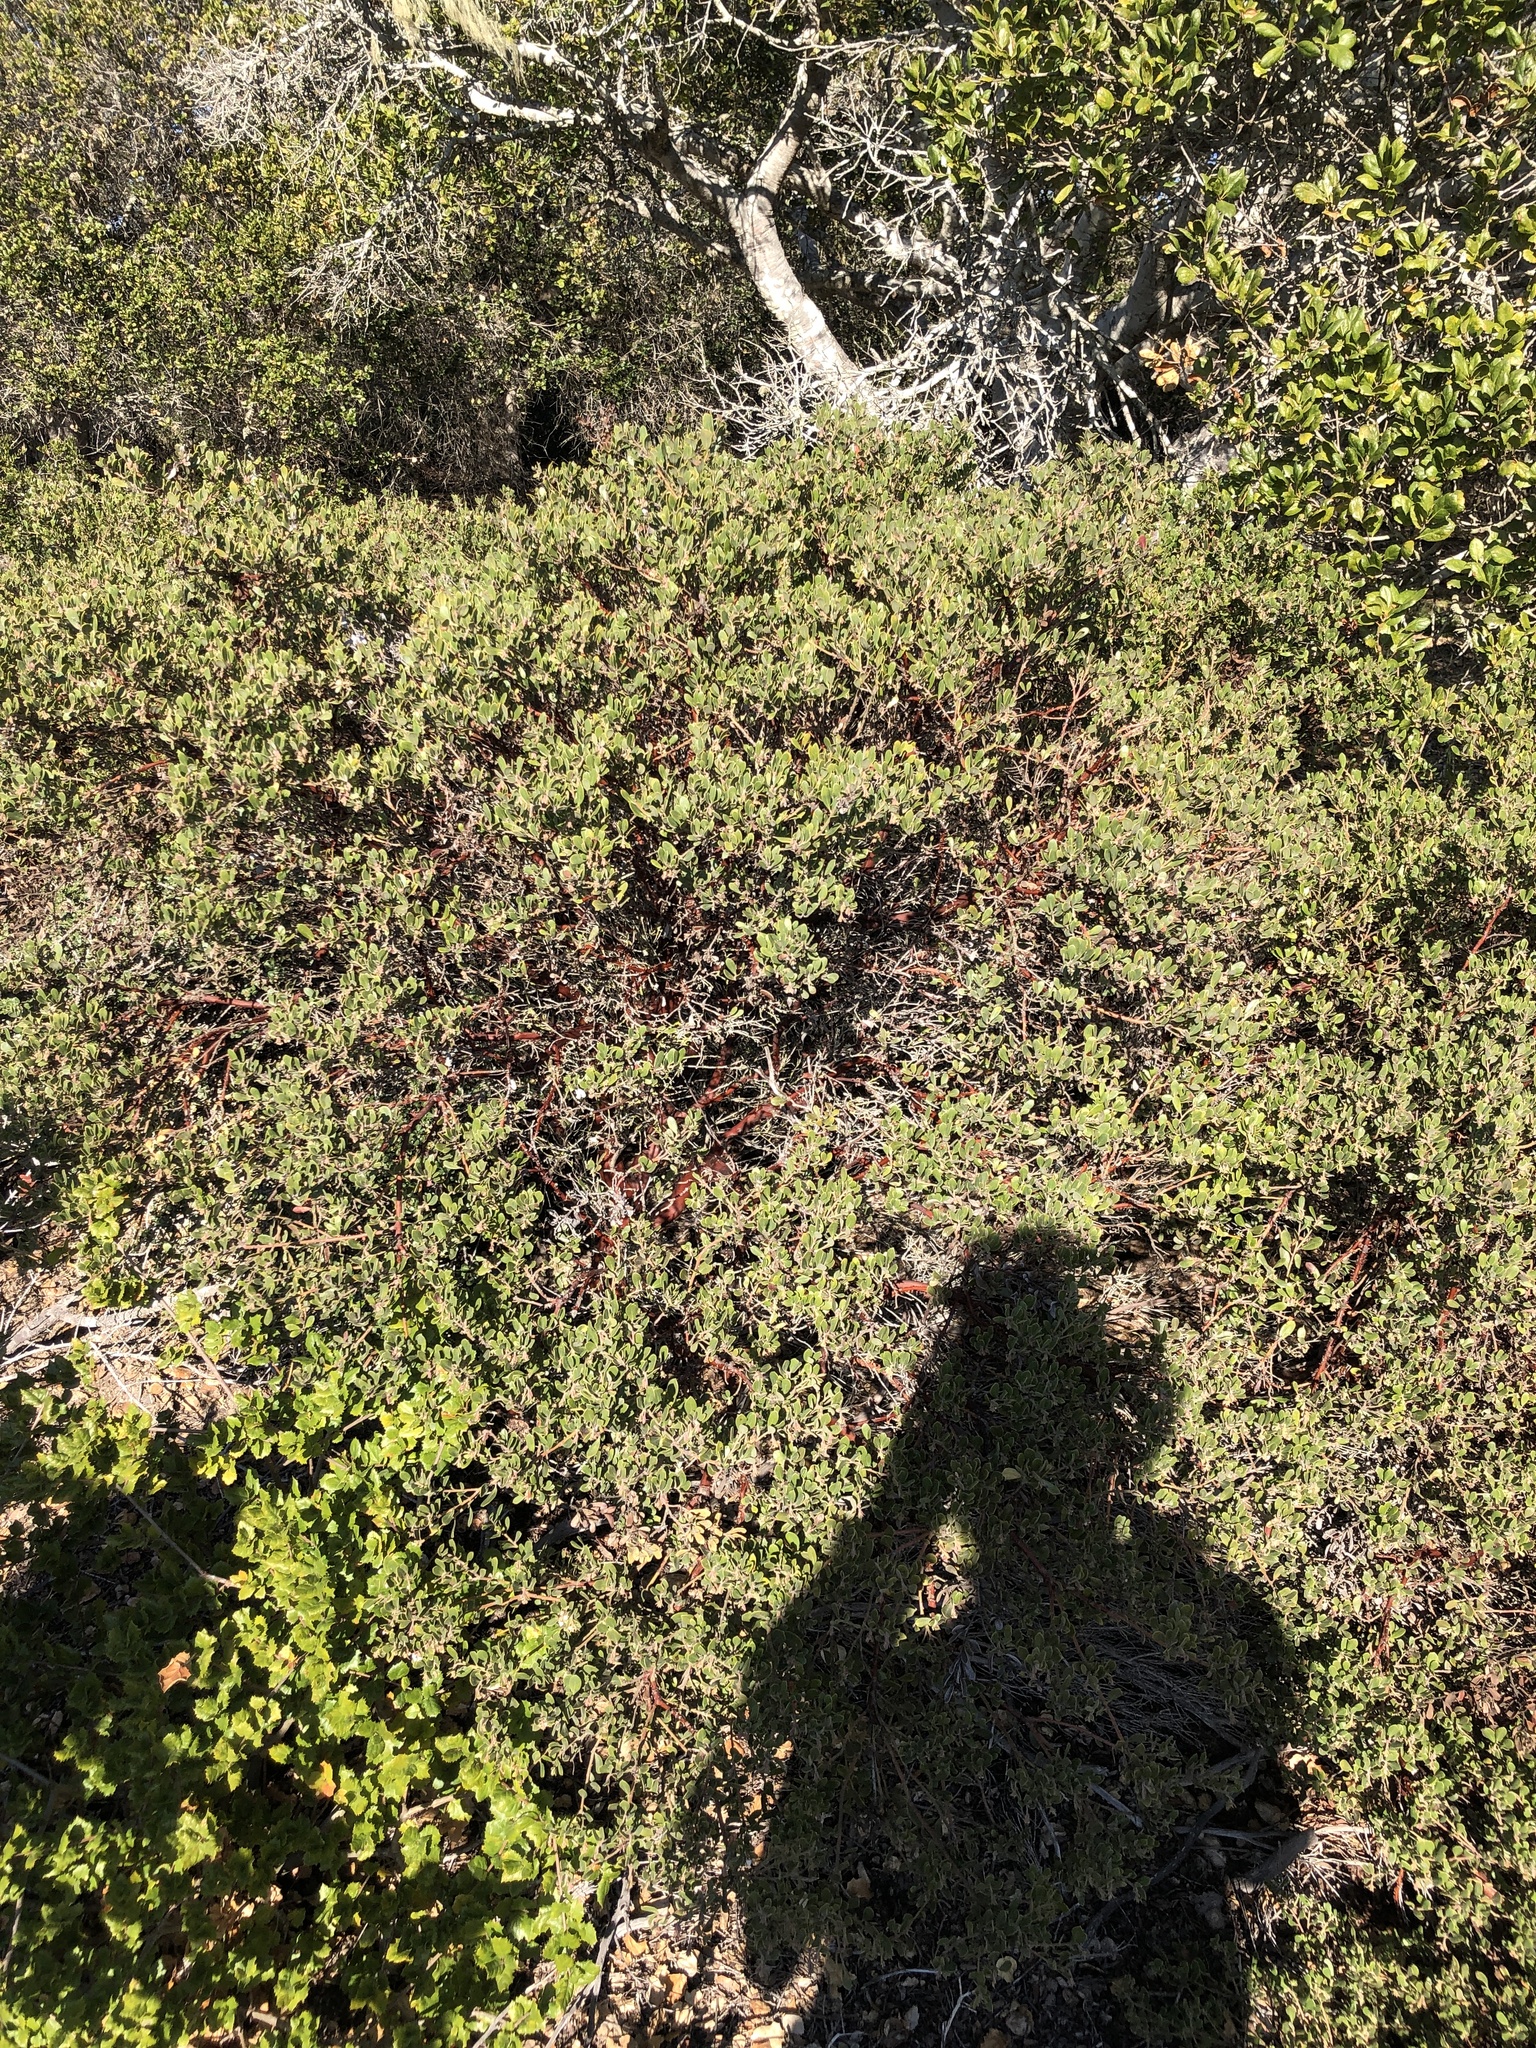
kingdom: Plantae
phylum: Tracheophyta
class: Magnoliopsida
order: Ericales
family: Ericaceae
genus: Arctostaphylos
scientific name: Arctostaphylos pumila
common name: Sandmat manzanita
